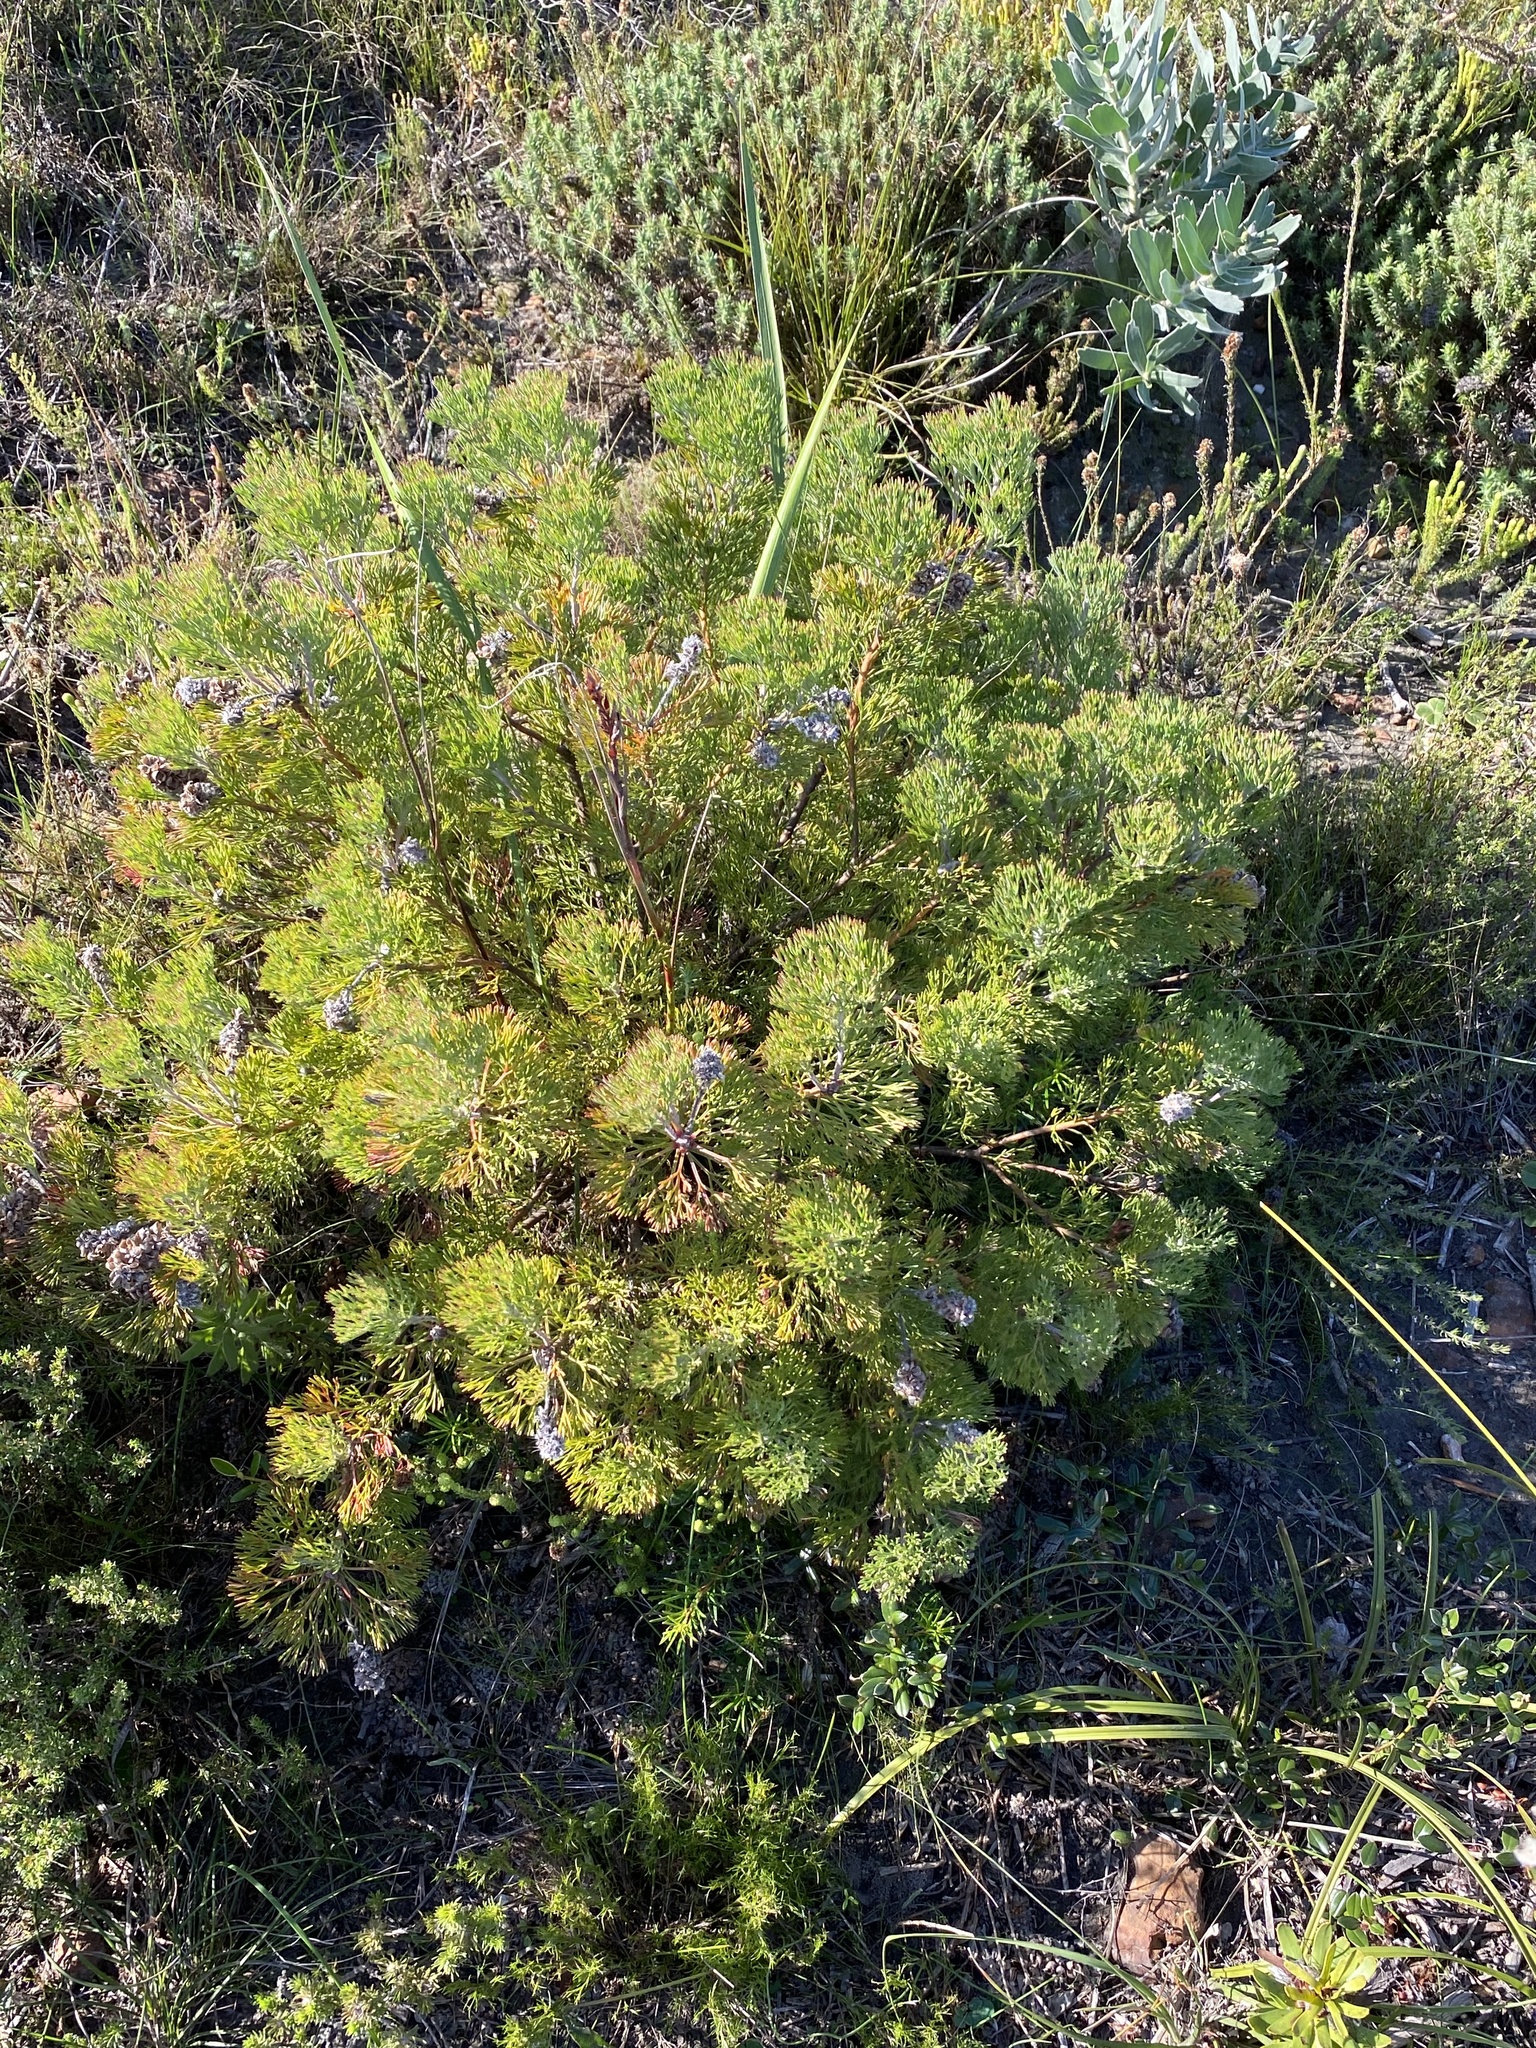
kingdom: Plantae
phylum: Tracheophyta
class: Magnoliopsida
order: Proteales
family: Proteaceae
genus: Paranomus
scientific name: Paranomus abrotanifolius
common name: Bredasdorp sceptre
